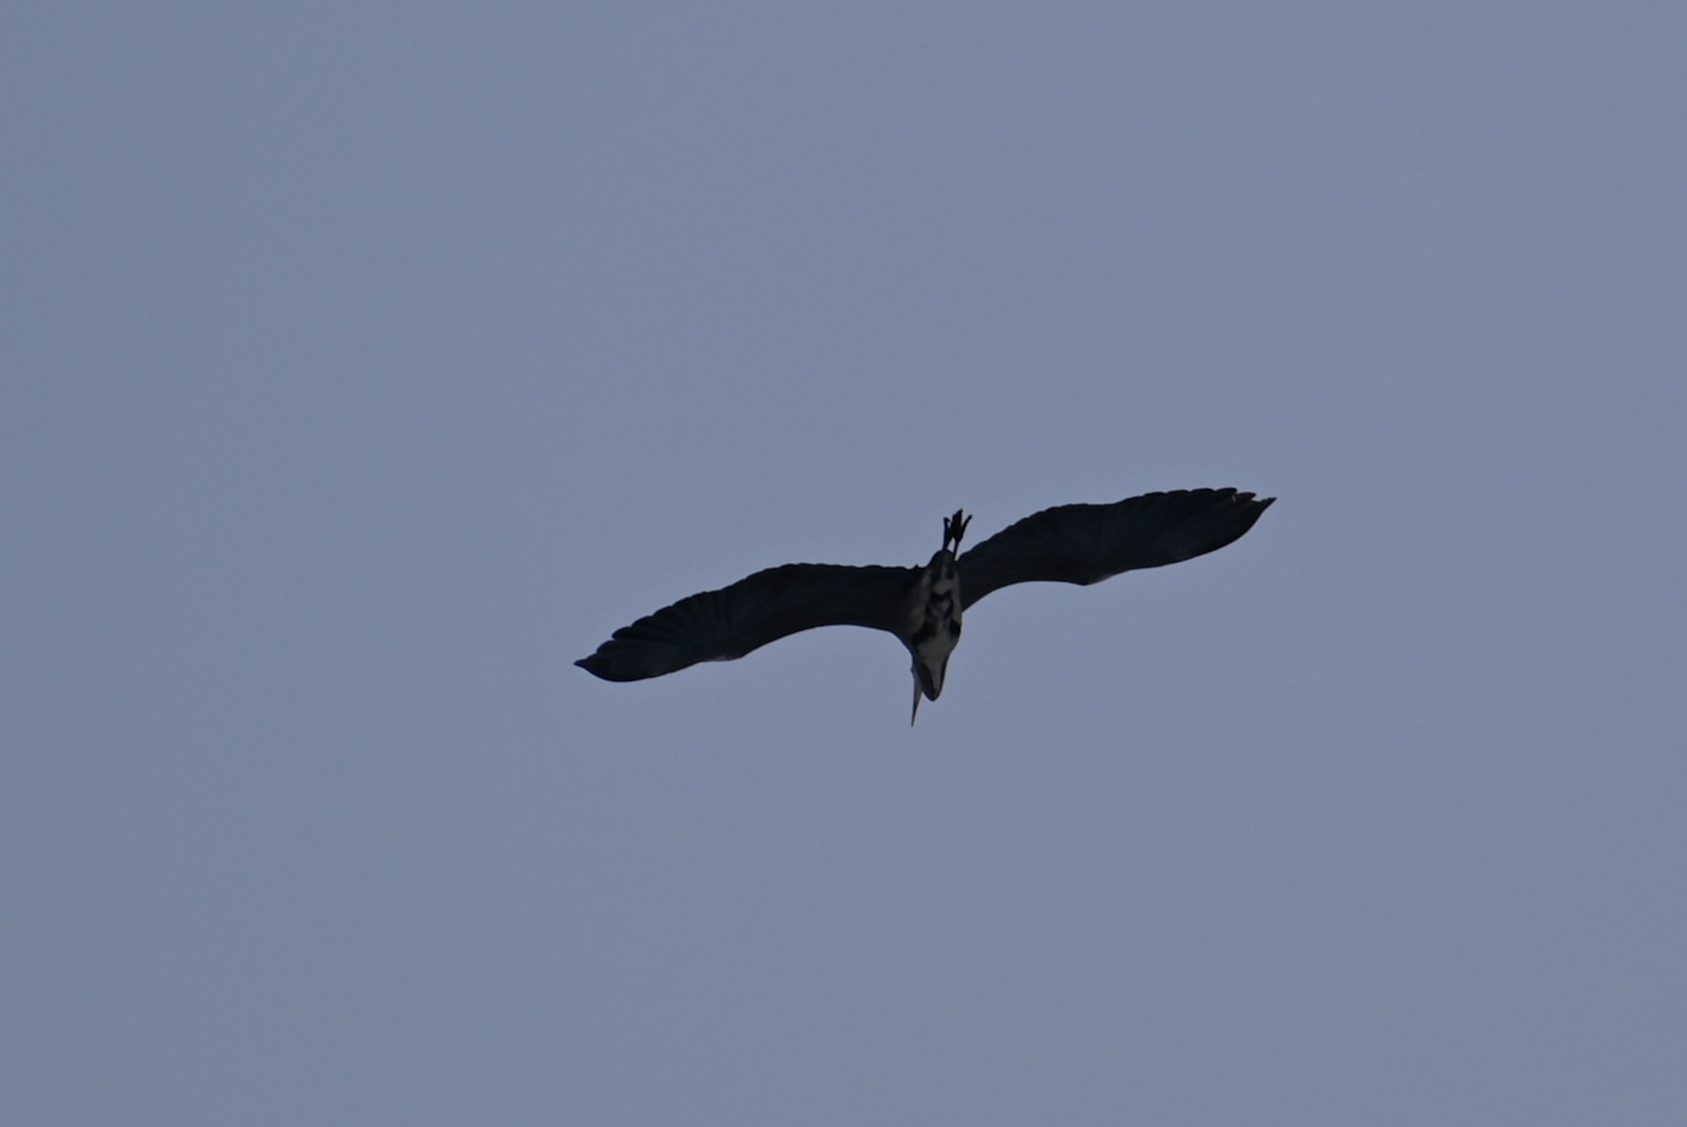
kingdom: Animalia
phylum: Chordata
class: Aves
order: Pelecaniformes
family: Ardeidae
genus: Ardea
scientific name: Ardea cinerea
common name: Grey heron
